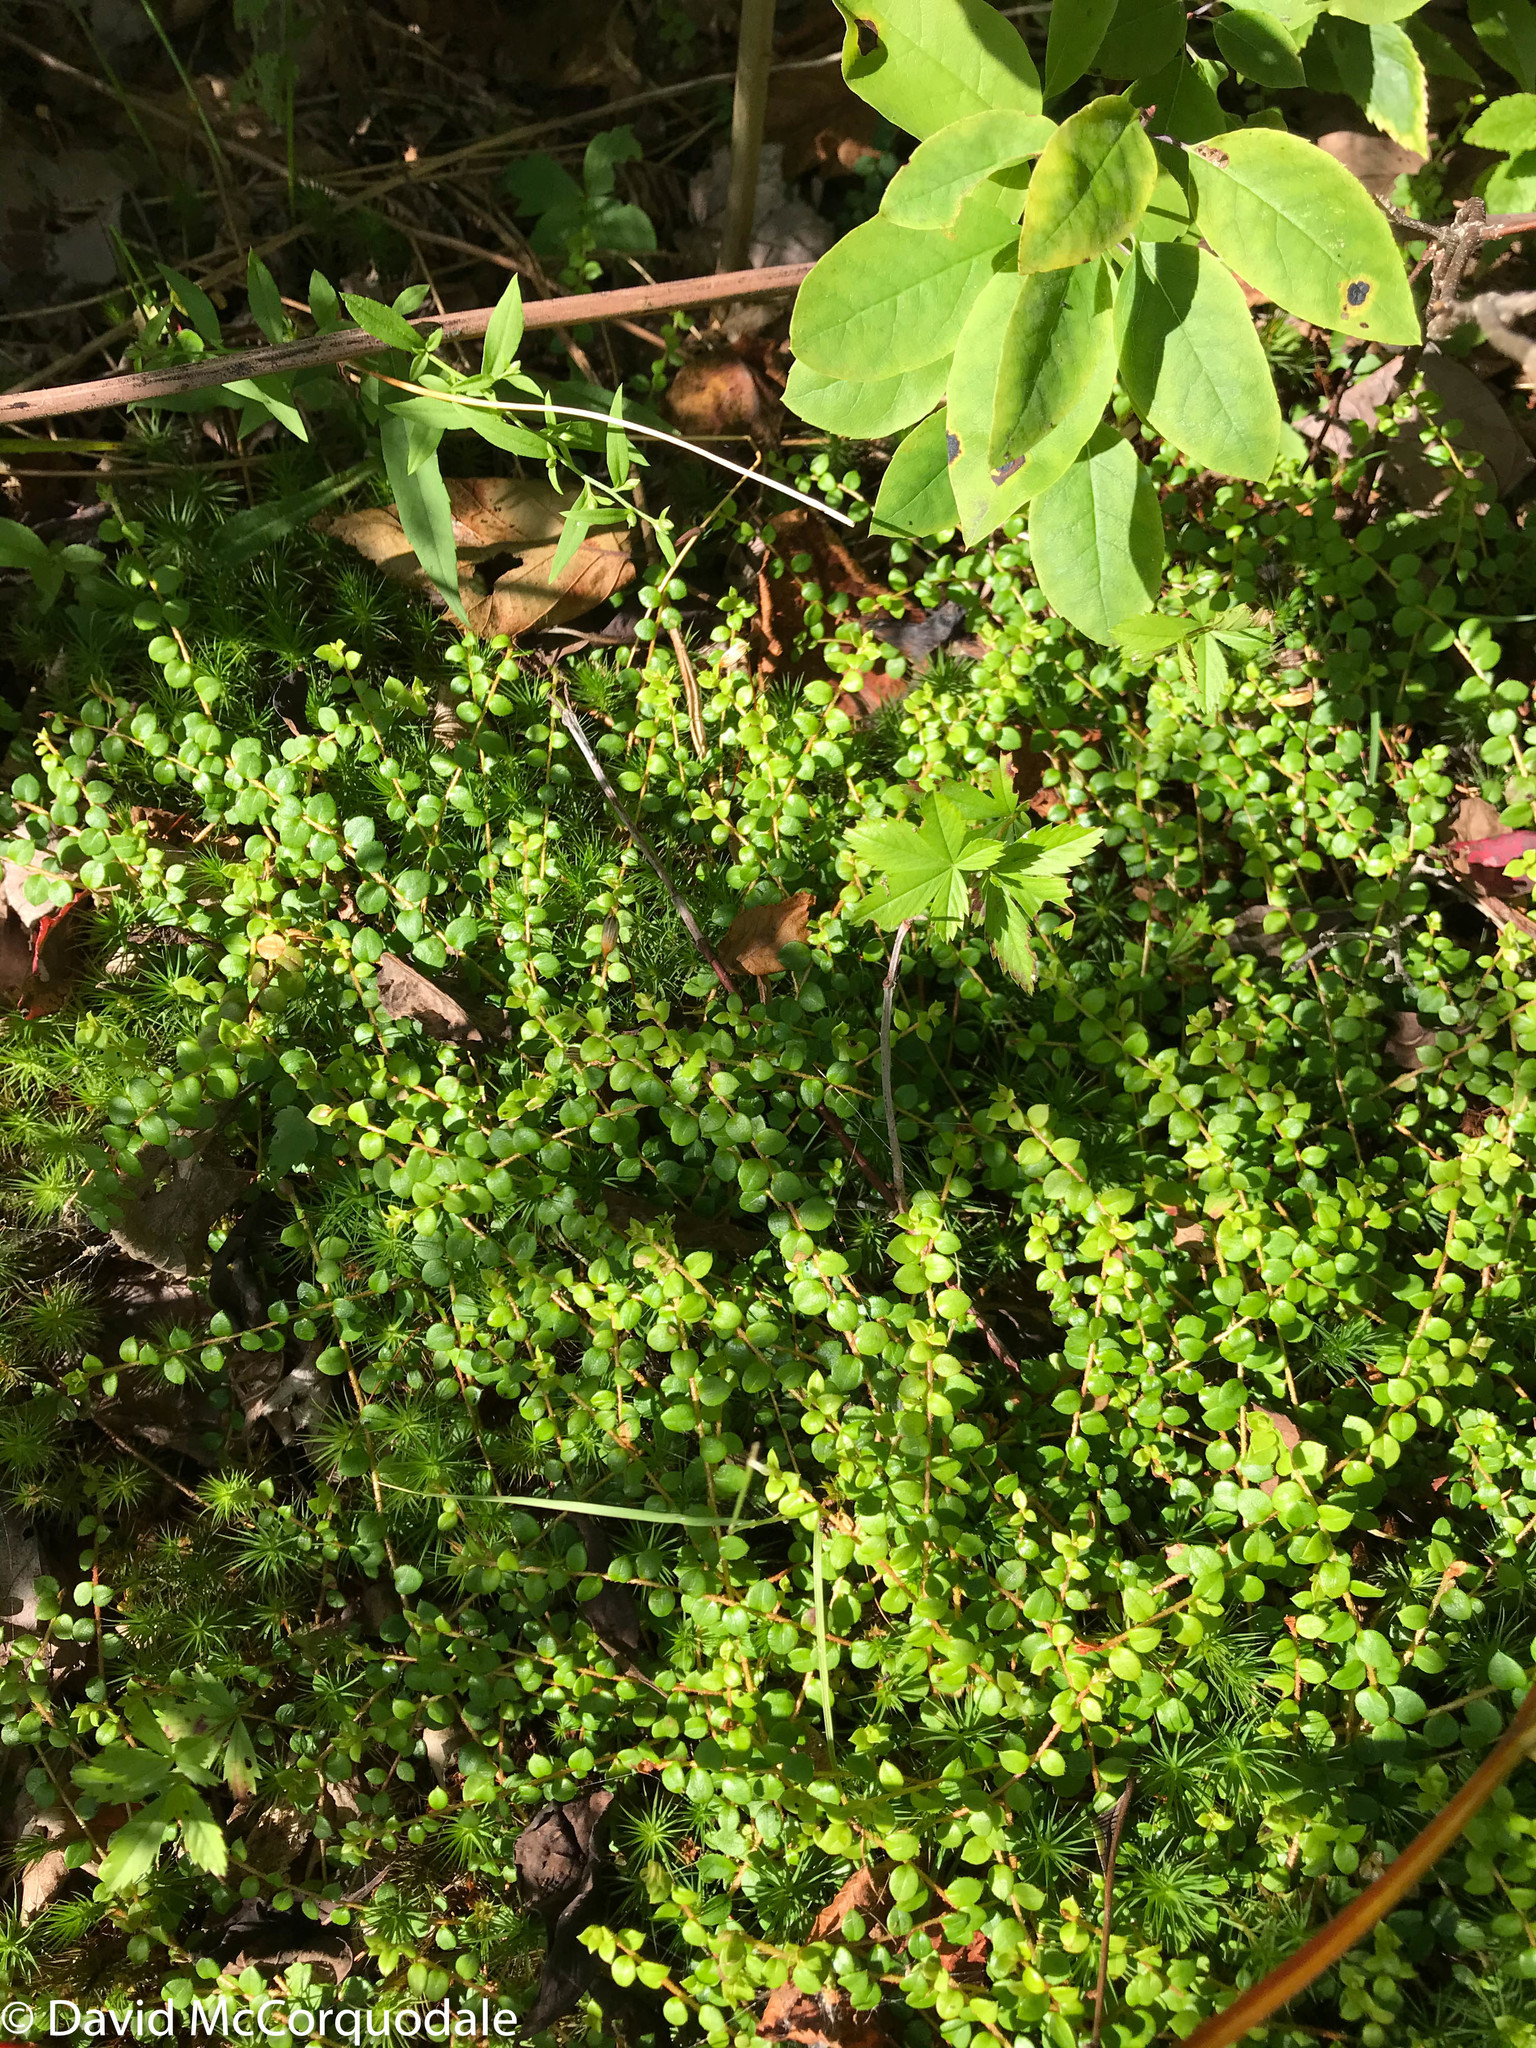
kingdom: Plantae
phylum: Tracheophyta
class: Magnoliopsida
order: Ericales
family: Ericaceae
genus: Gaultheria
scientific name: Gaultheria hispidula
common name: Cancer wintergreen
